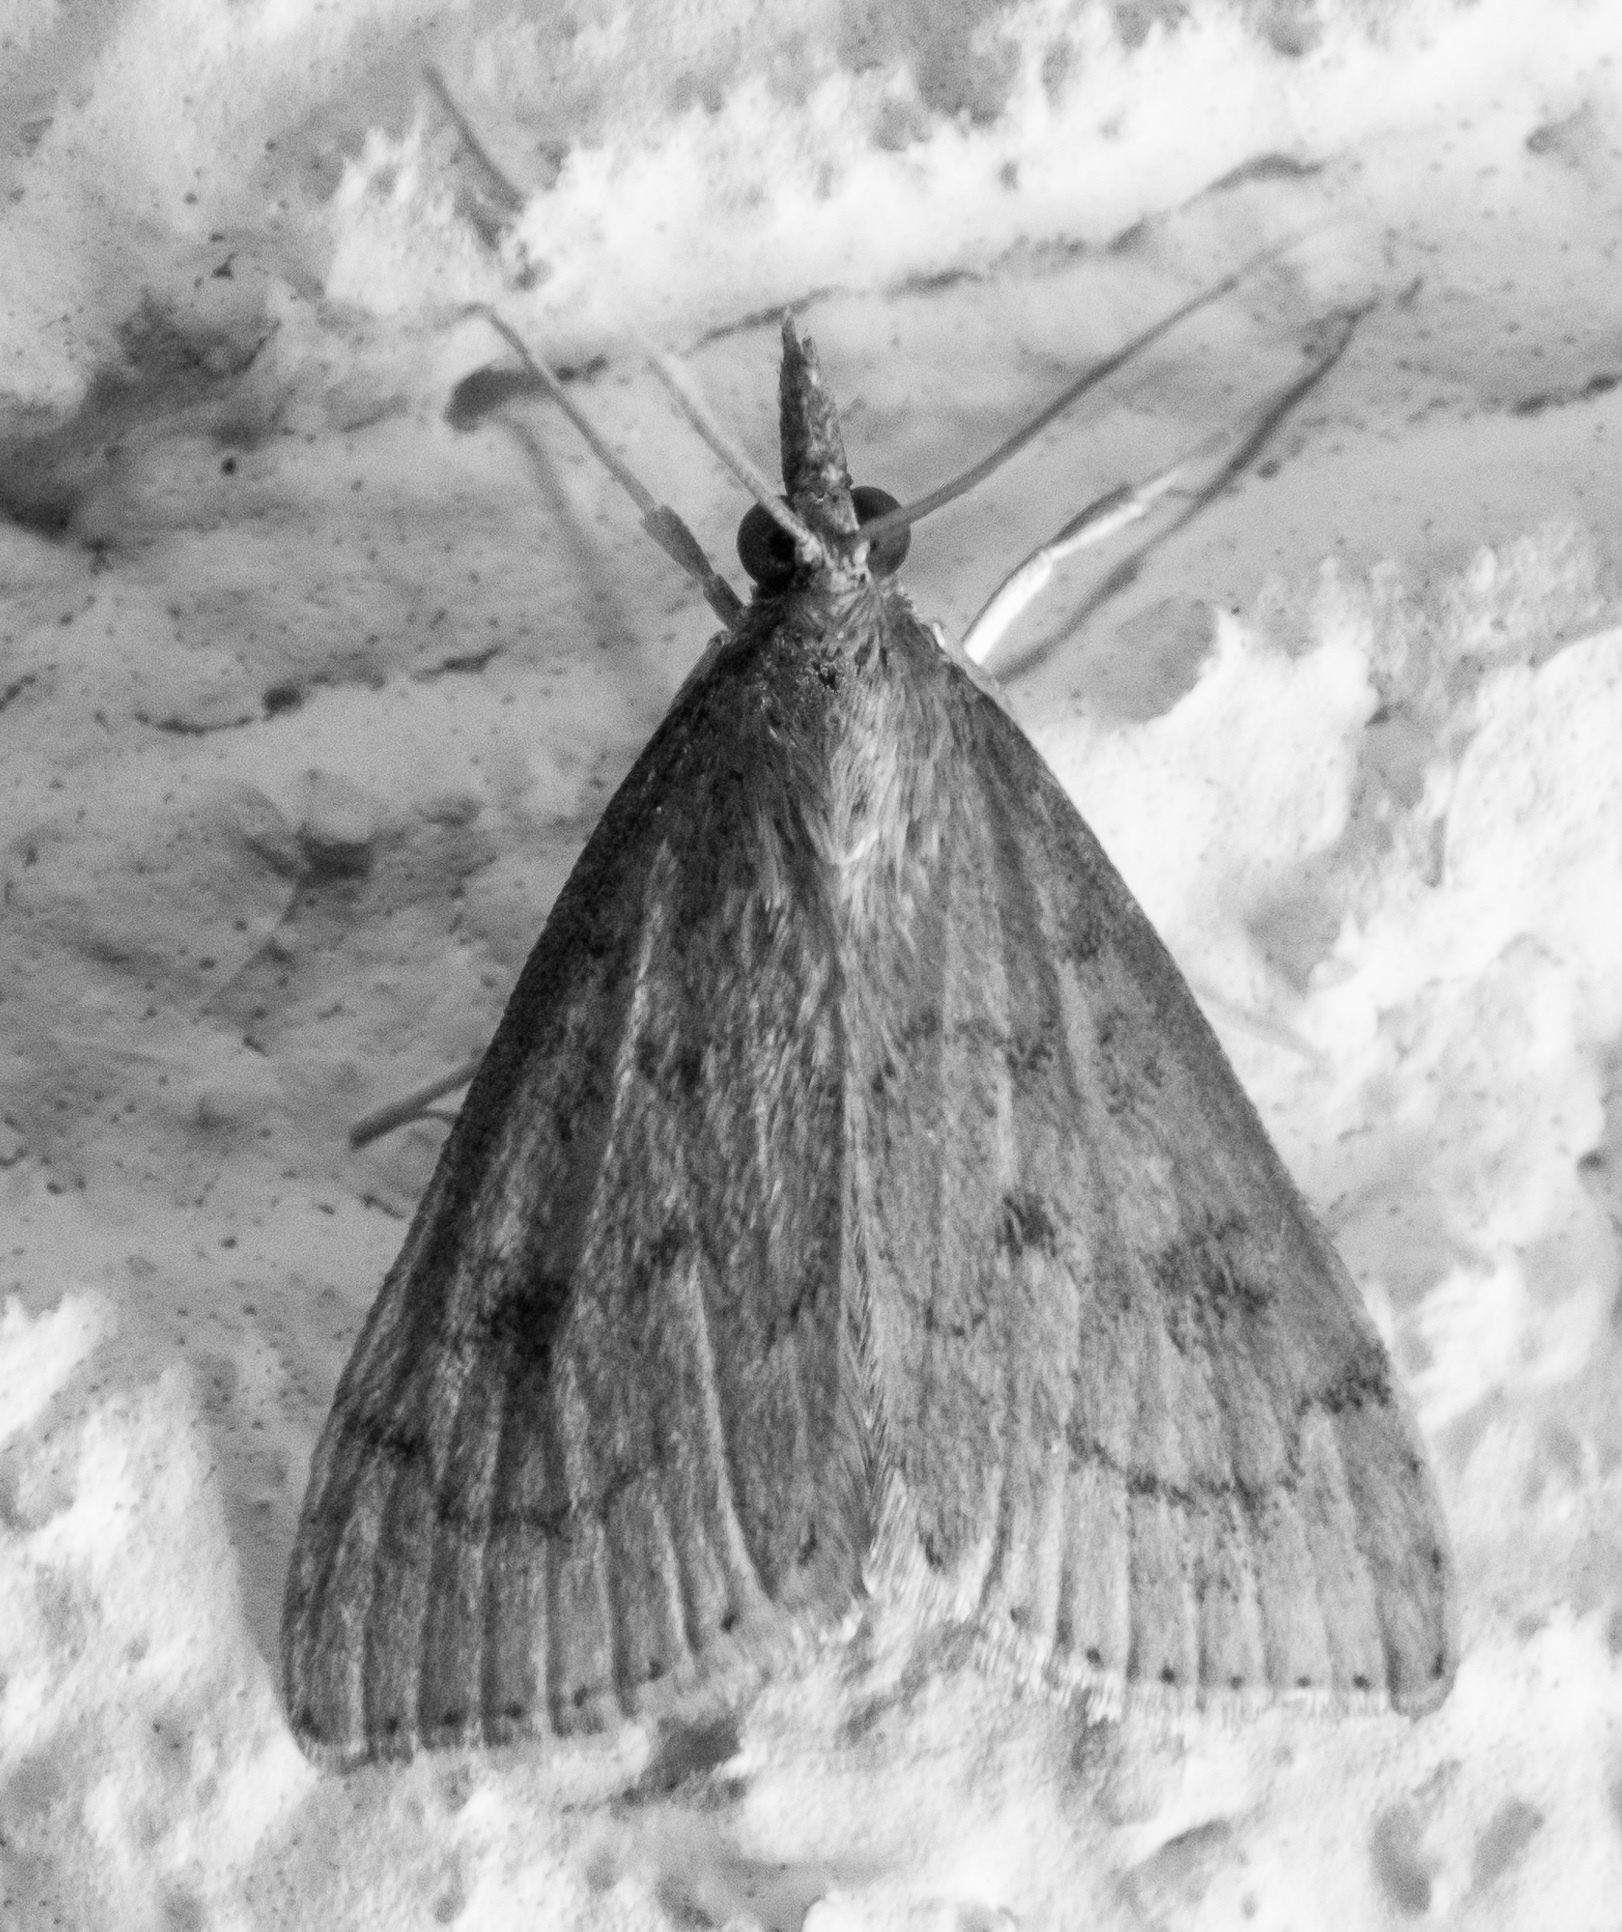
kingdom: Animalia
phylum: Arthropoda
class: Insecta
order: Lepidoptera
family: Crambidae
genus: Udea
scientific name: Udea rubigalis
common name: Celery leaftier moth
